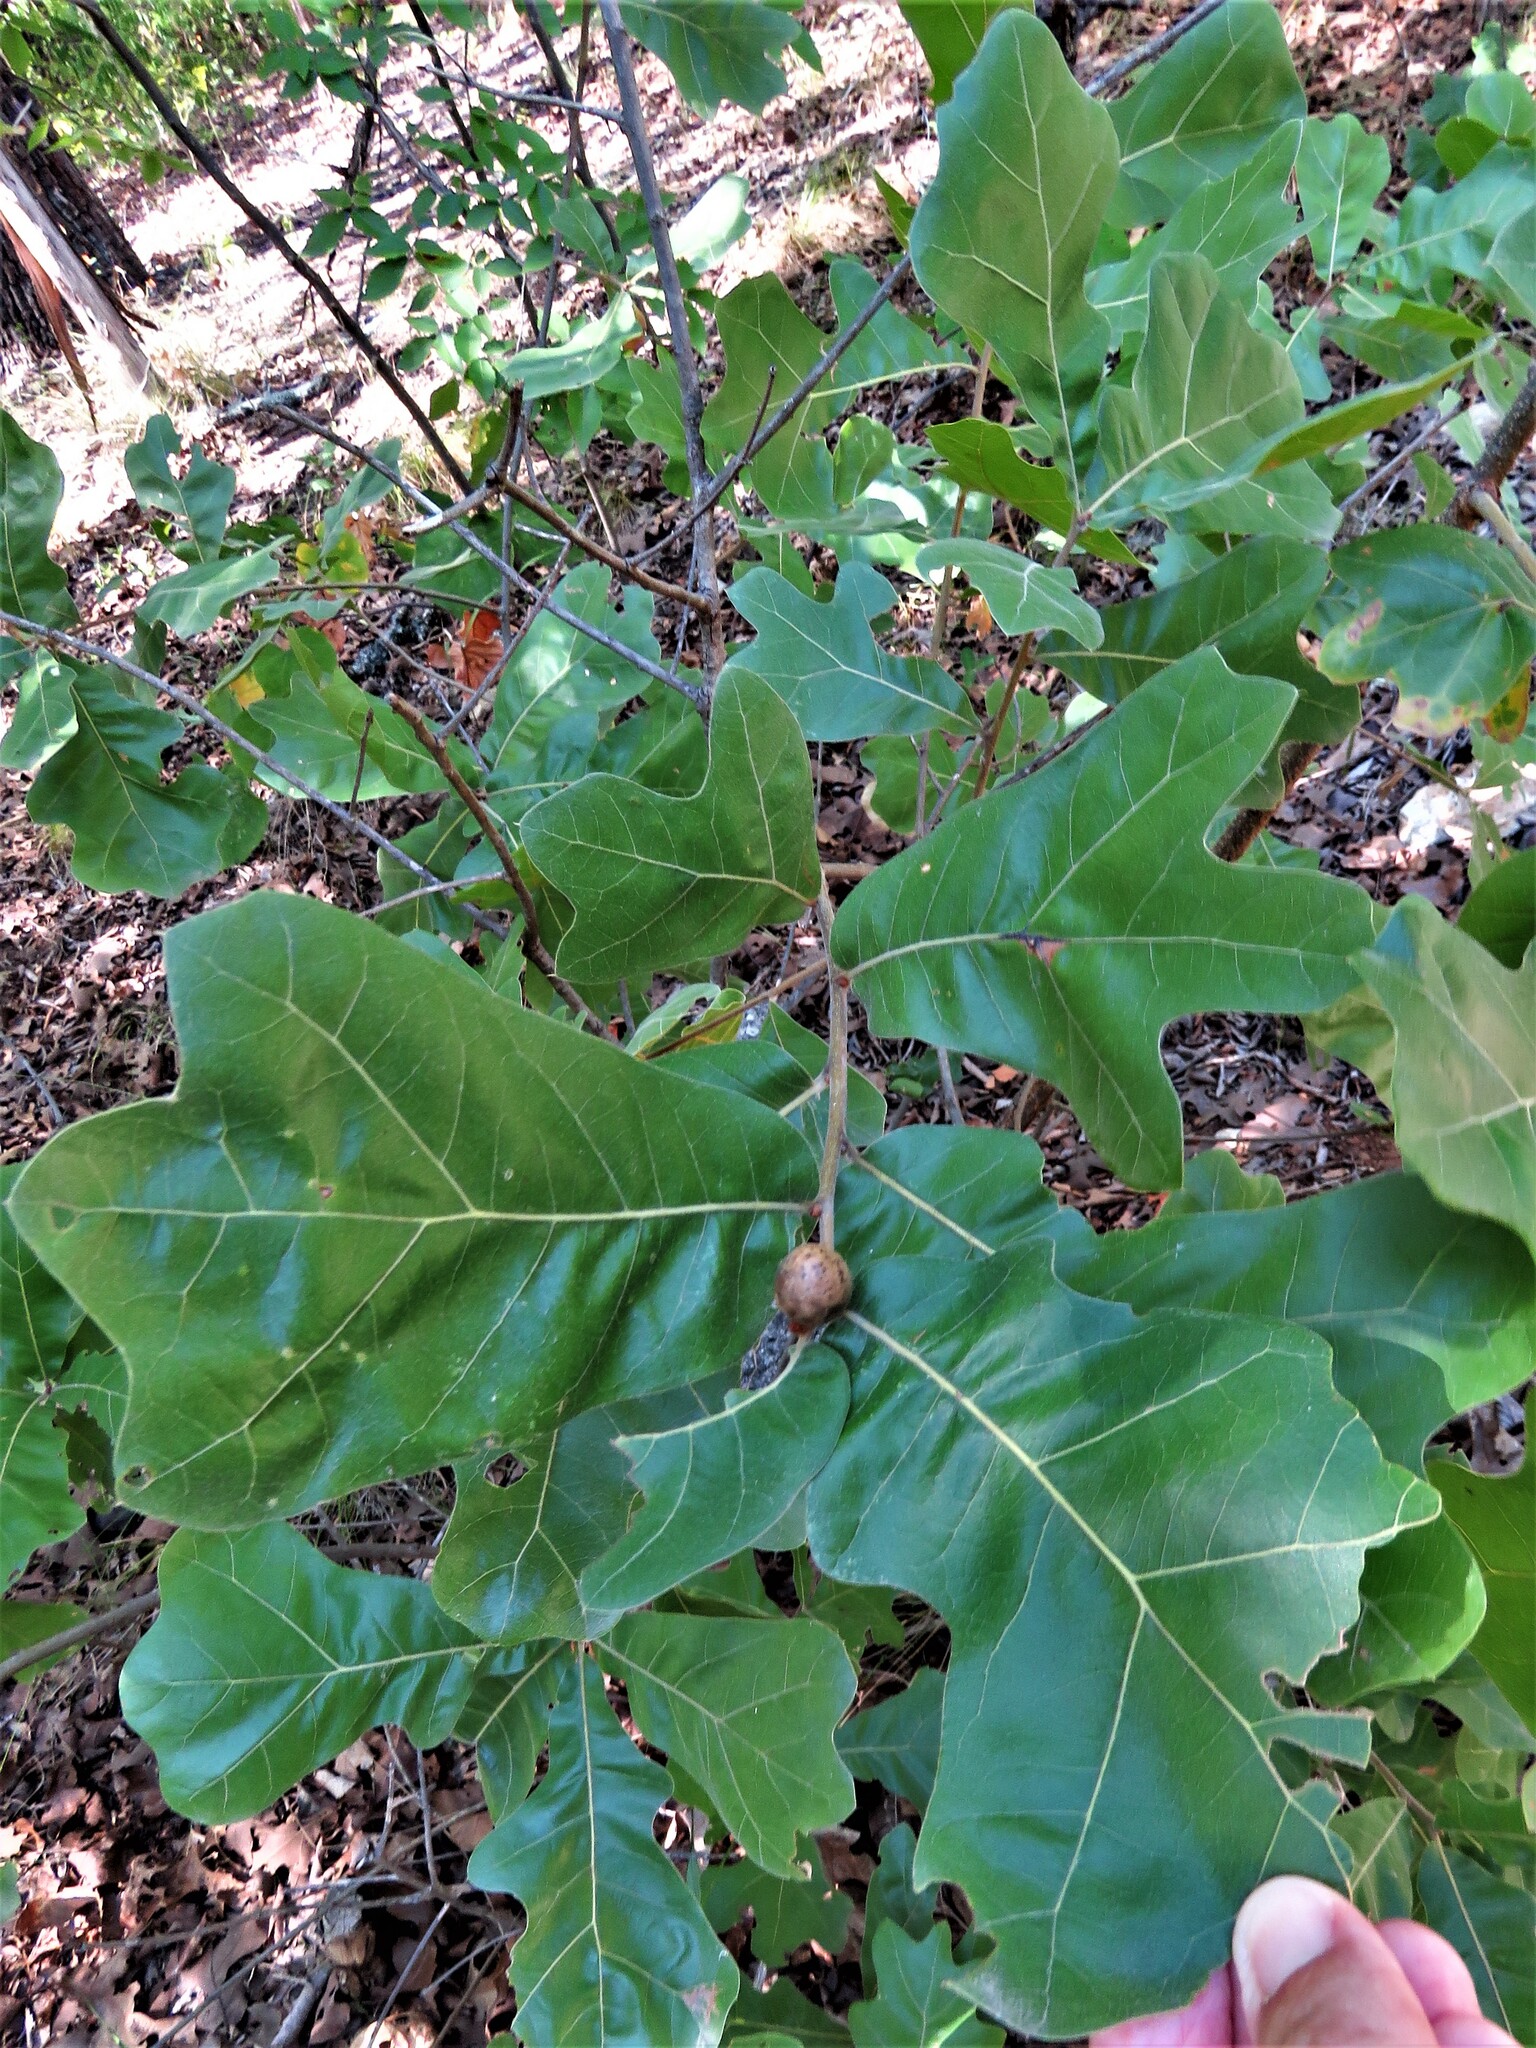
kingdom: Plantae
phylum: Tracheophyta
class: Magnoliopsida
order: Fagales
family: Fagaceae
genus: Quercus
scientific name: Quercus marilandica
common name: Blackjack oak
